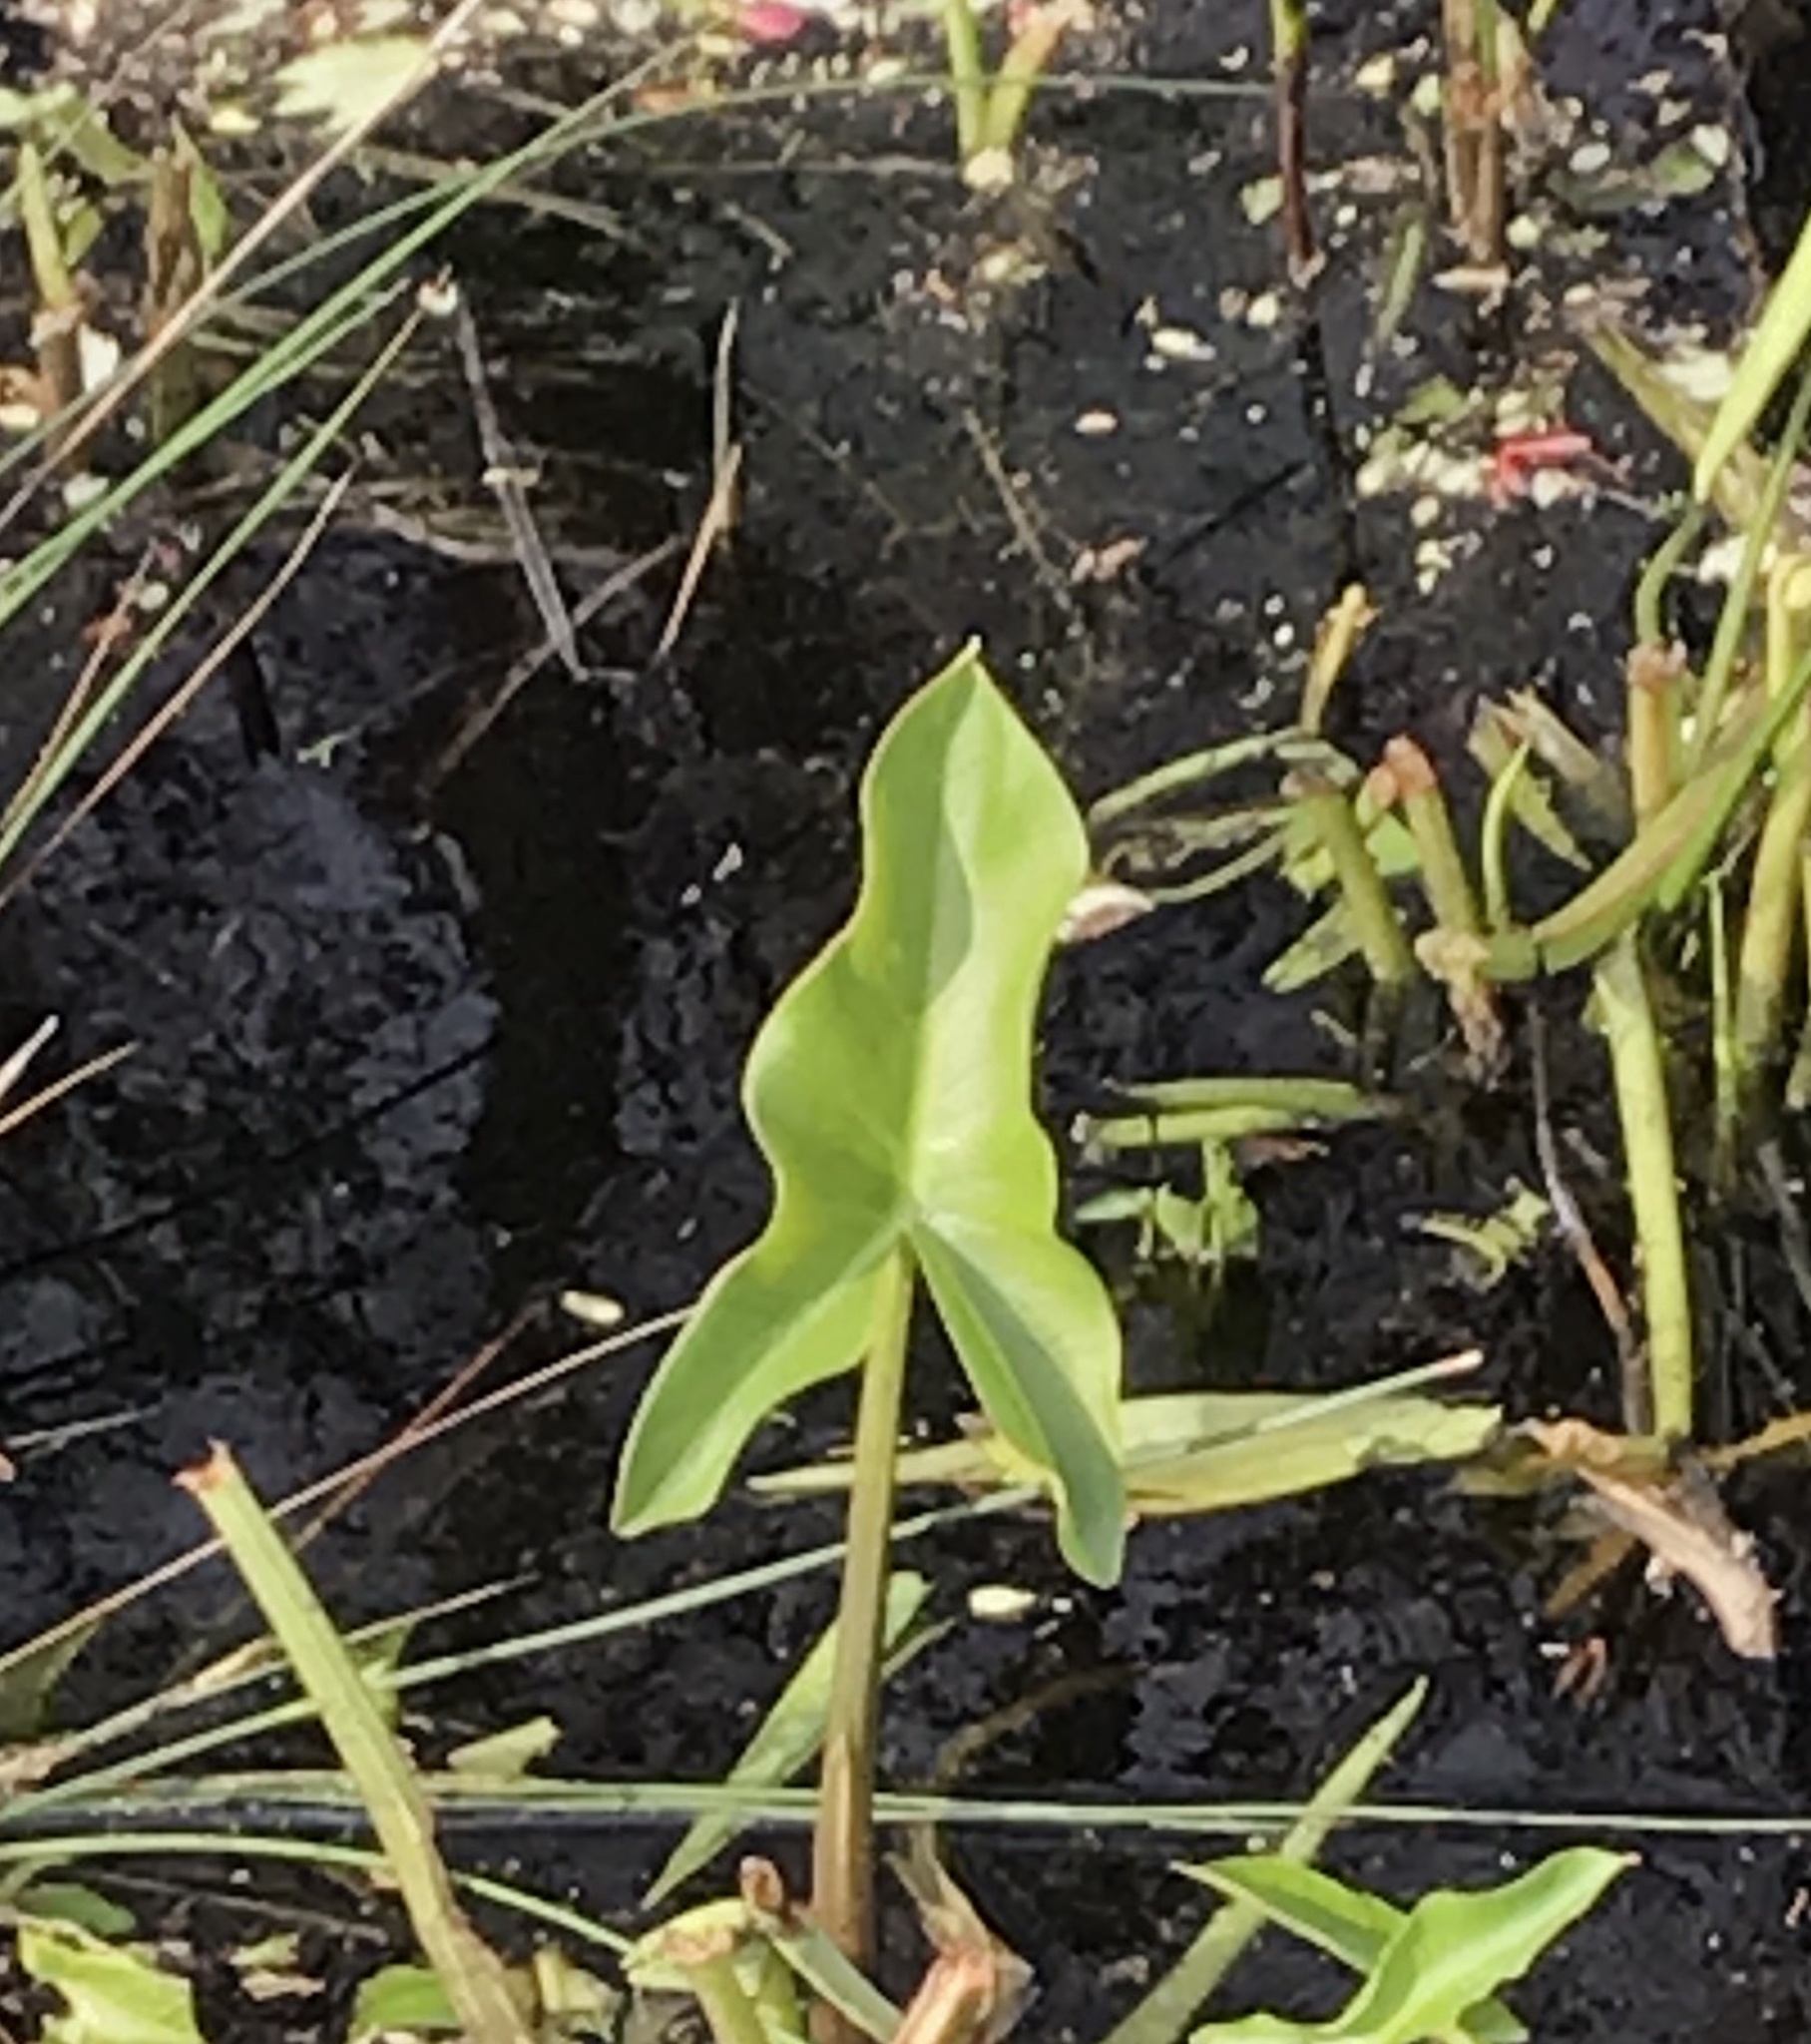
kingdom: Plantae
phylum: Tracheophyta
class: Liliopsida
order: Alismatales
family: Araceae
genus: Peltandra
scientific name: Peltandra virginica
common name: Arrow arum
